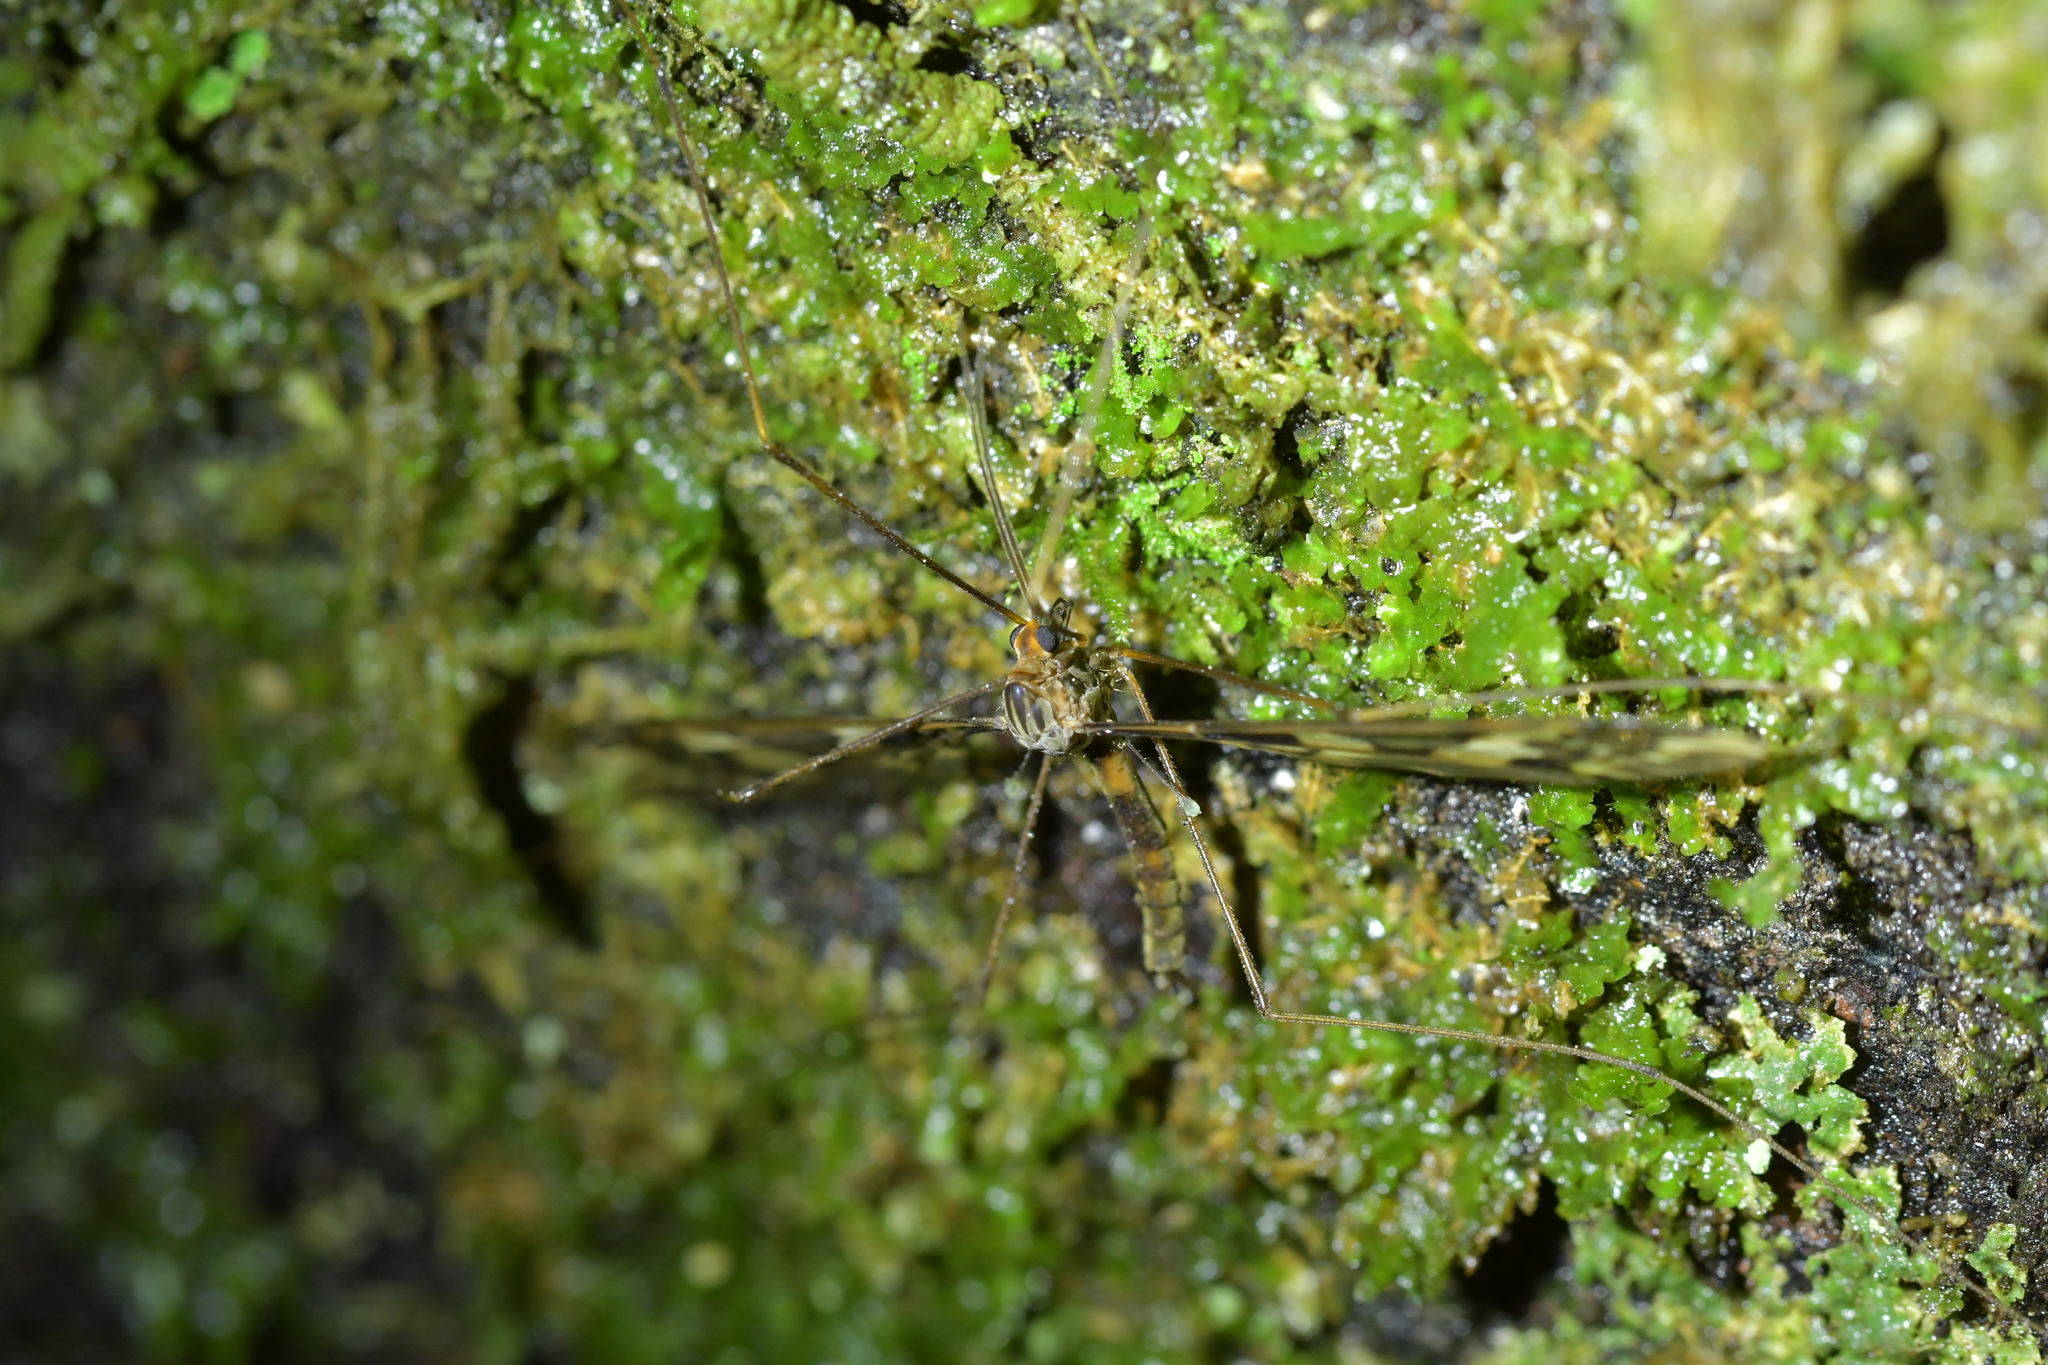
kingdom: Animalia
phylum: Arthropoda
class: Insecta
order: Diptera
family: Tipulidae
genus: Leptotarsus
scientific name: Leptotarsus binotatus
